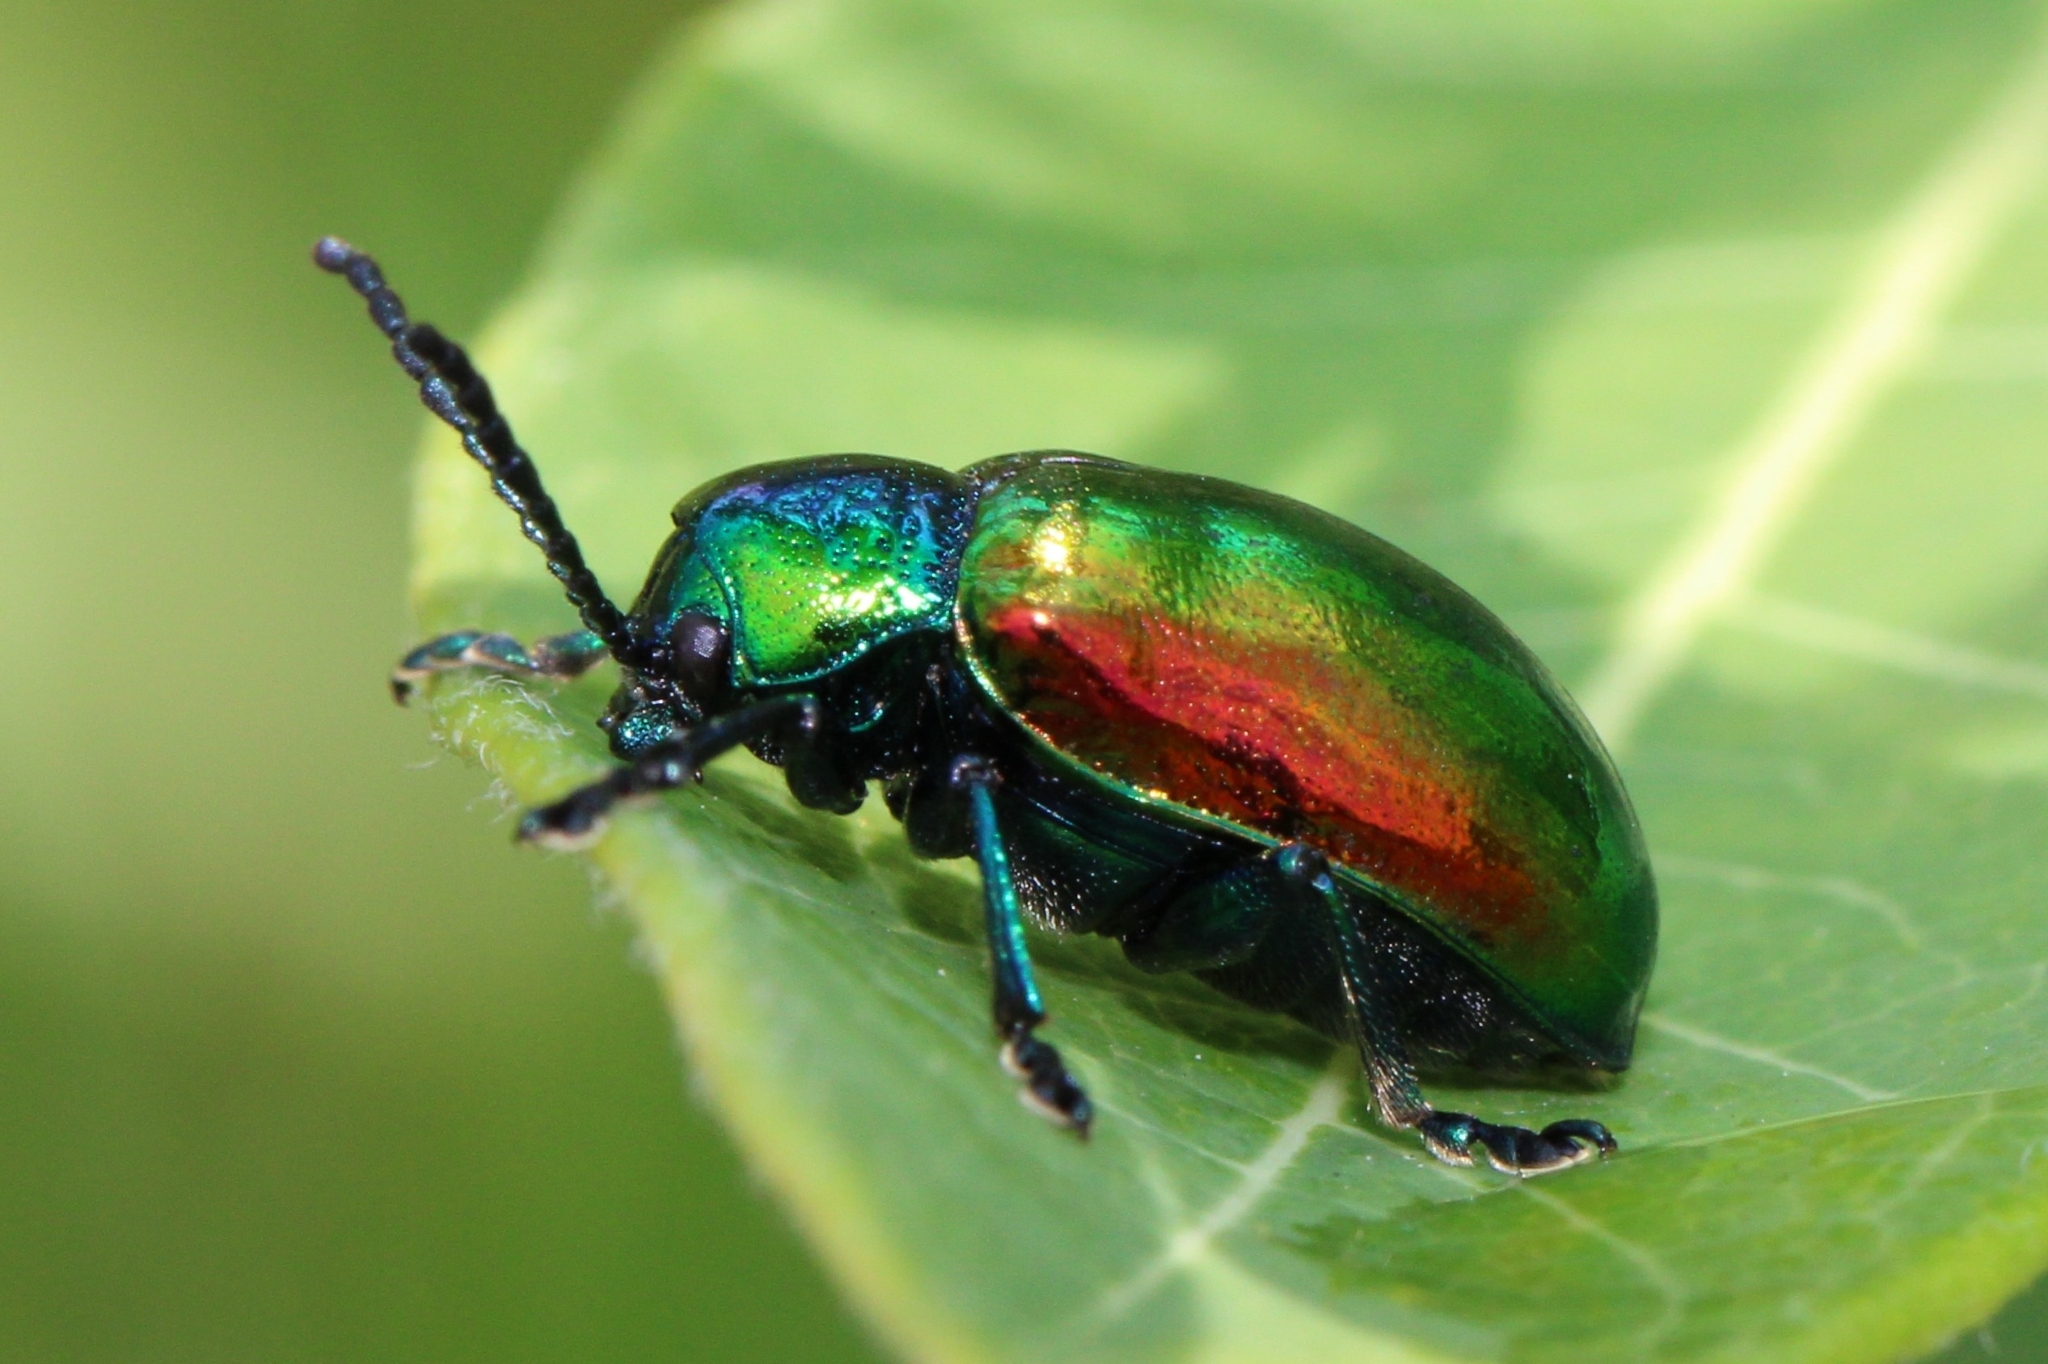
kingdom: Animalia
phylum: Arthropoda
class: Insecta
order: Coleoptera
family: Chrysomelidae
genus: Chrysochus
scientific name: Chrysochus auratus
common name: Dogbane leaf beetle
